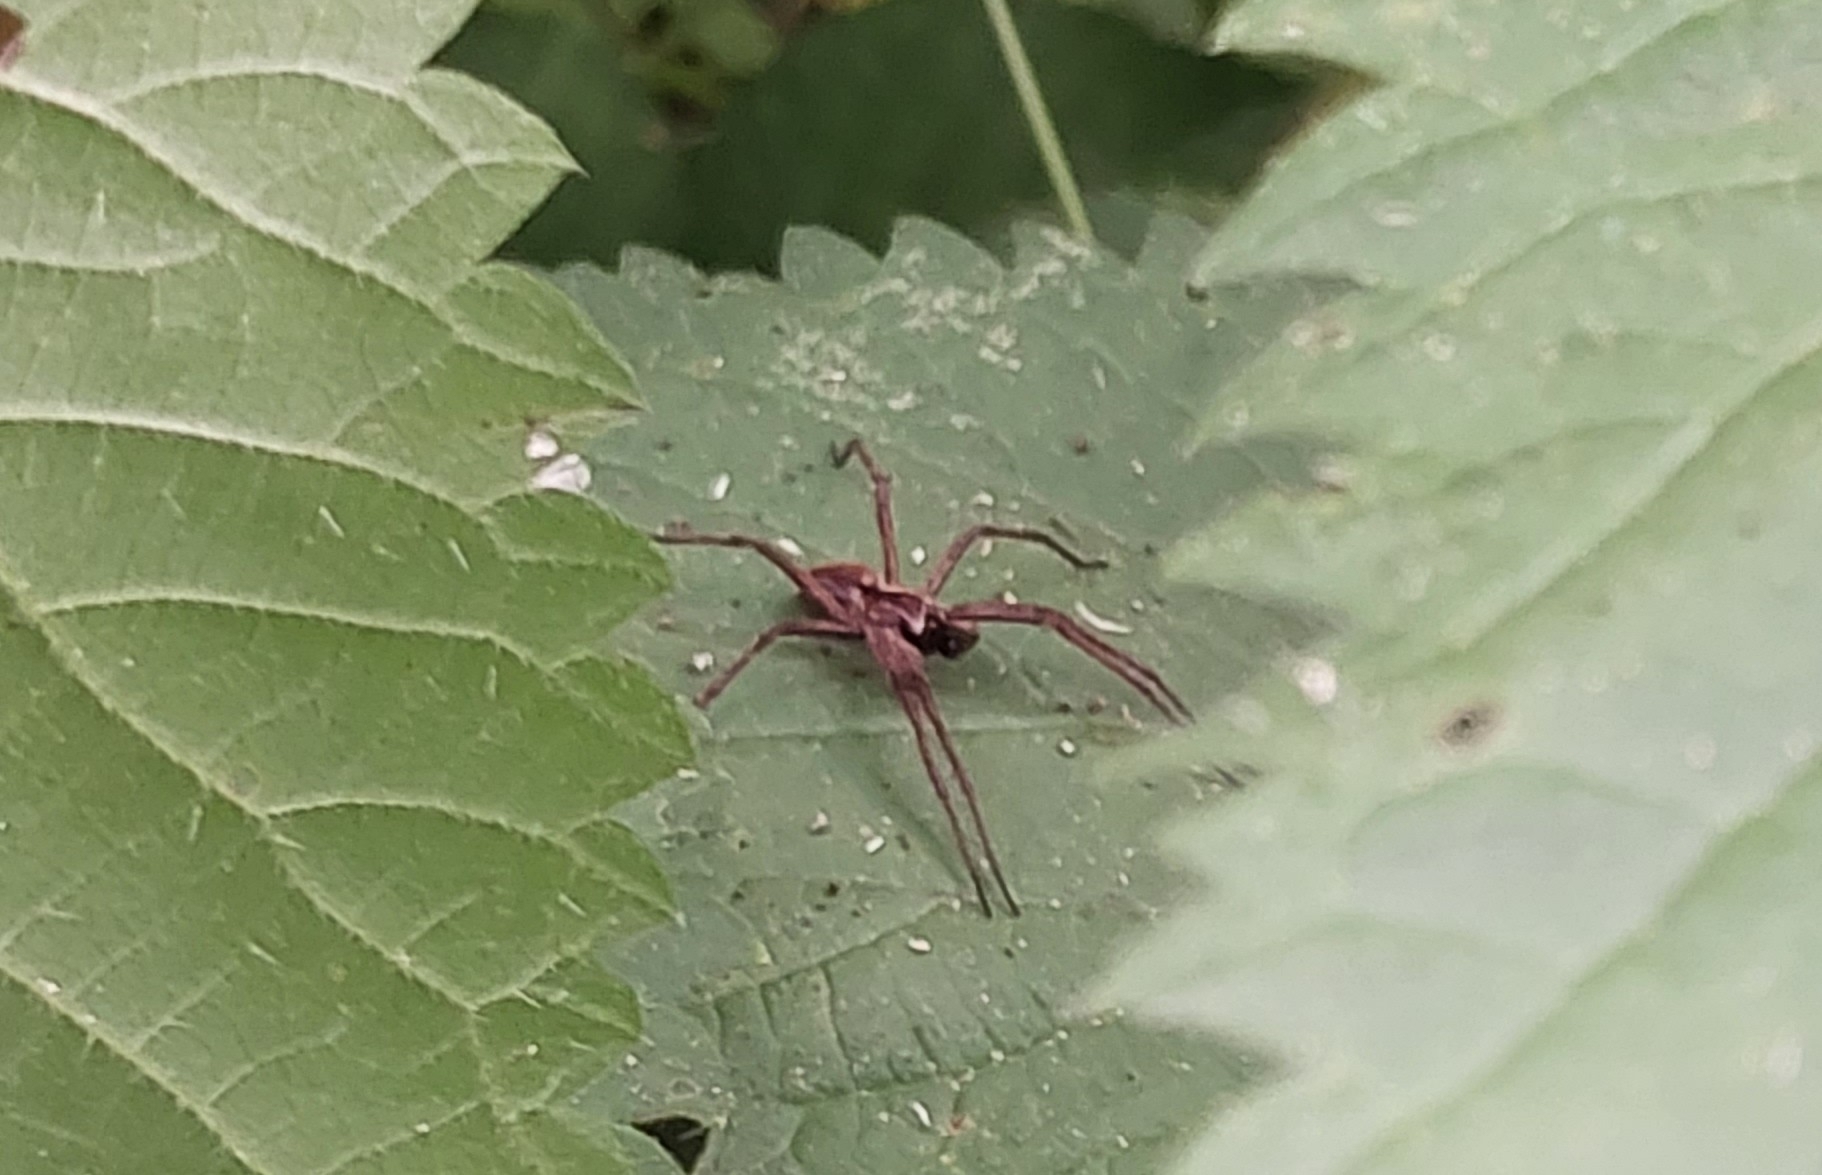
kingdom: Animalia
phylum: Arthropoda
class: Arachnida
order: Araneae
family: Pisauridae
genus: Pisaura
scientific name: Pisaura mirabilis
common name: Tent spider
